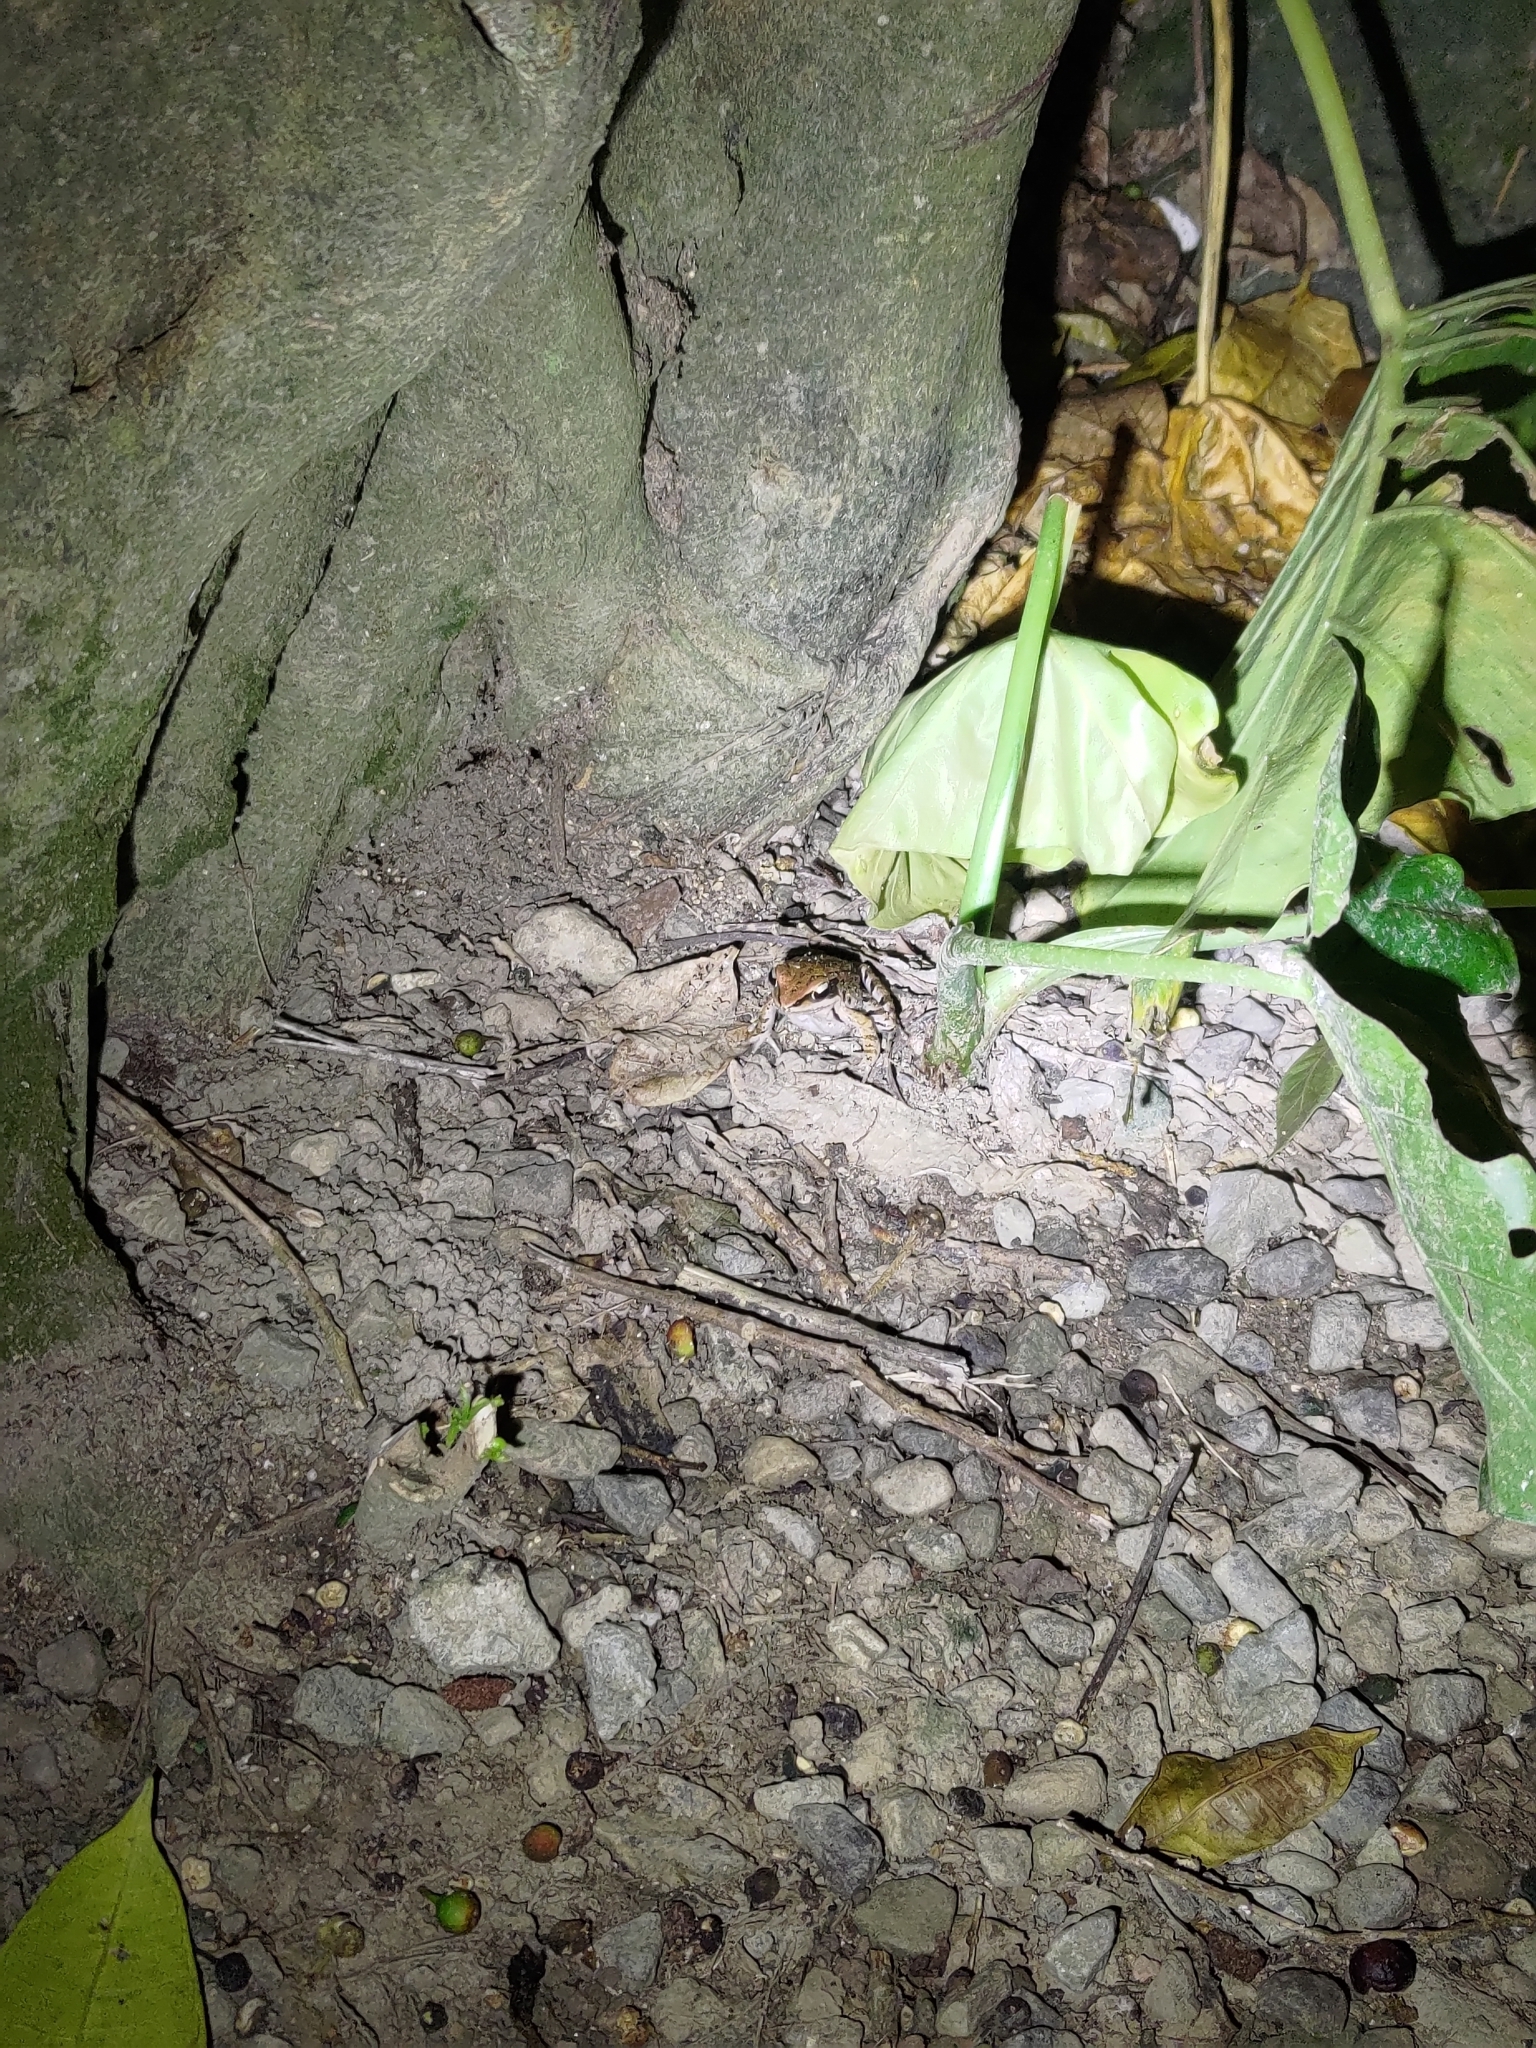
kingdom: Animalia
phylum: Chordata
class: Amphibia
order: Anura
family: Ranidae
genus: Hylarana
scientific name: Hylarana latouchii
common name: Broad-folded frog
